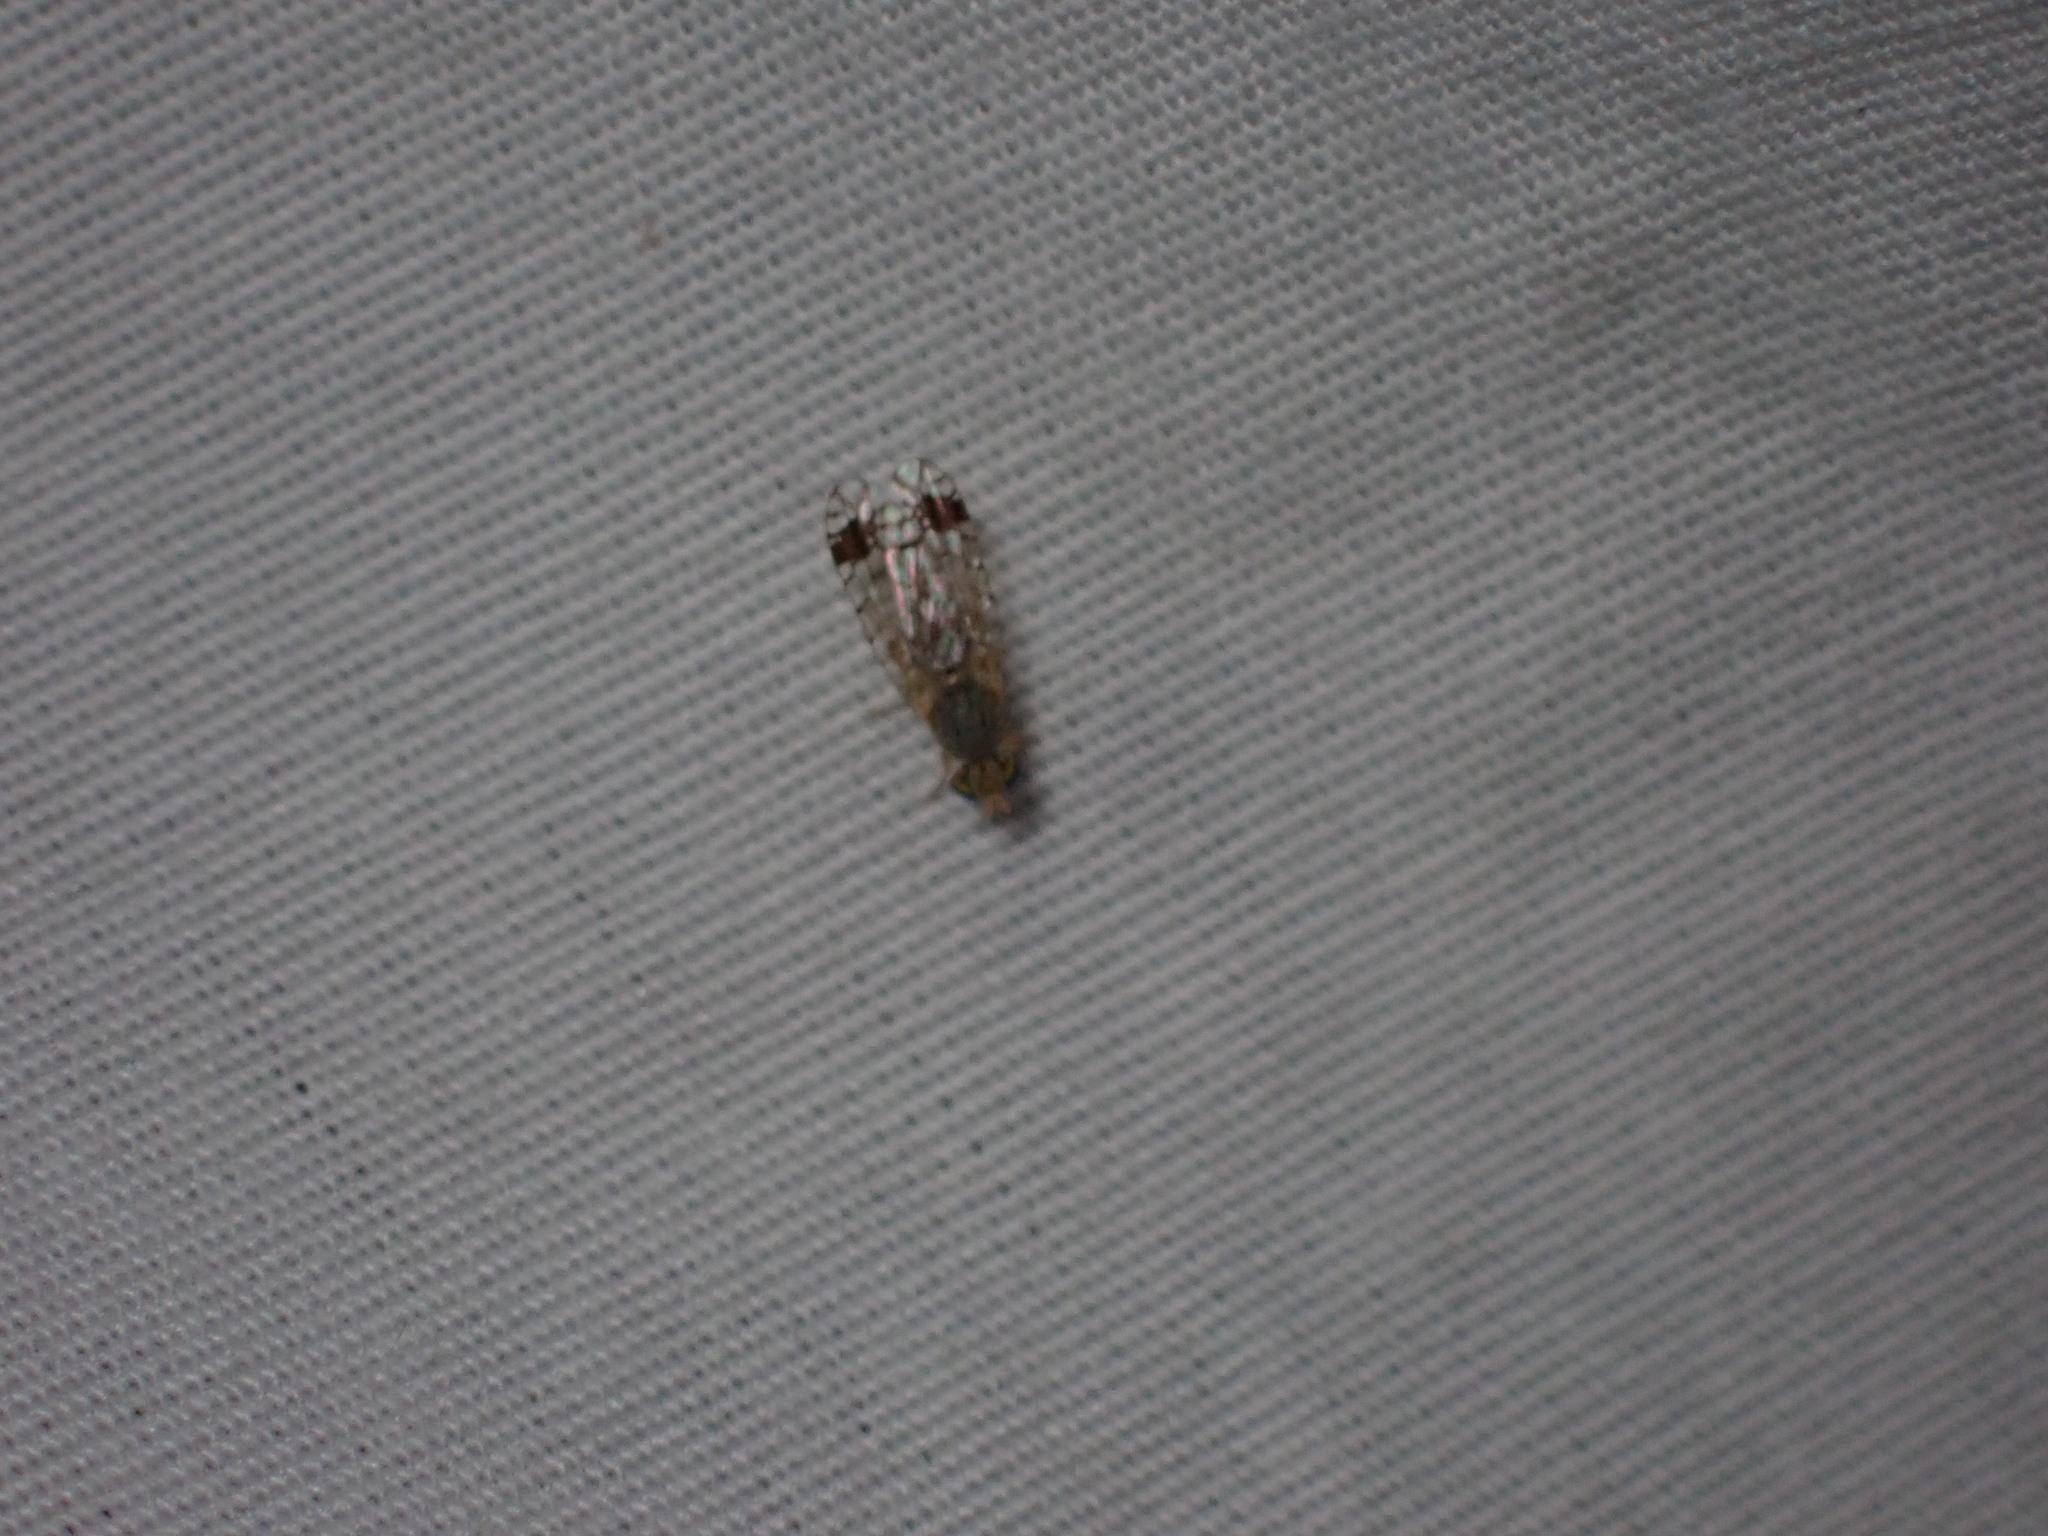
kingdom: Animalia
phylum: Arthropoda
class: Insecta
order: Diptera
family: Tephritidae
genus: Euarestoides
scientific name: Euarestoides acutangulus
